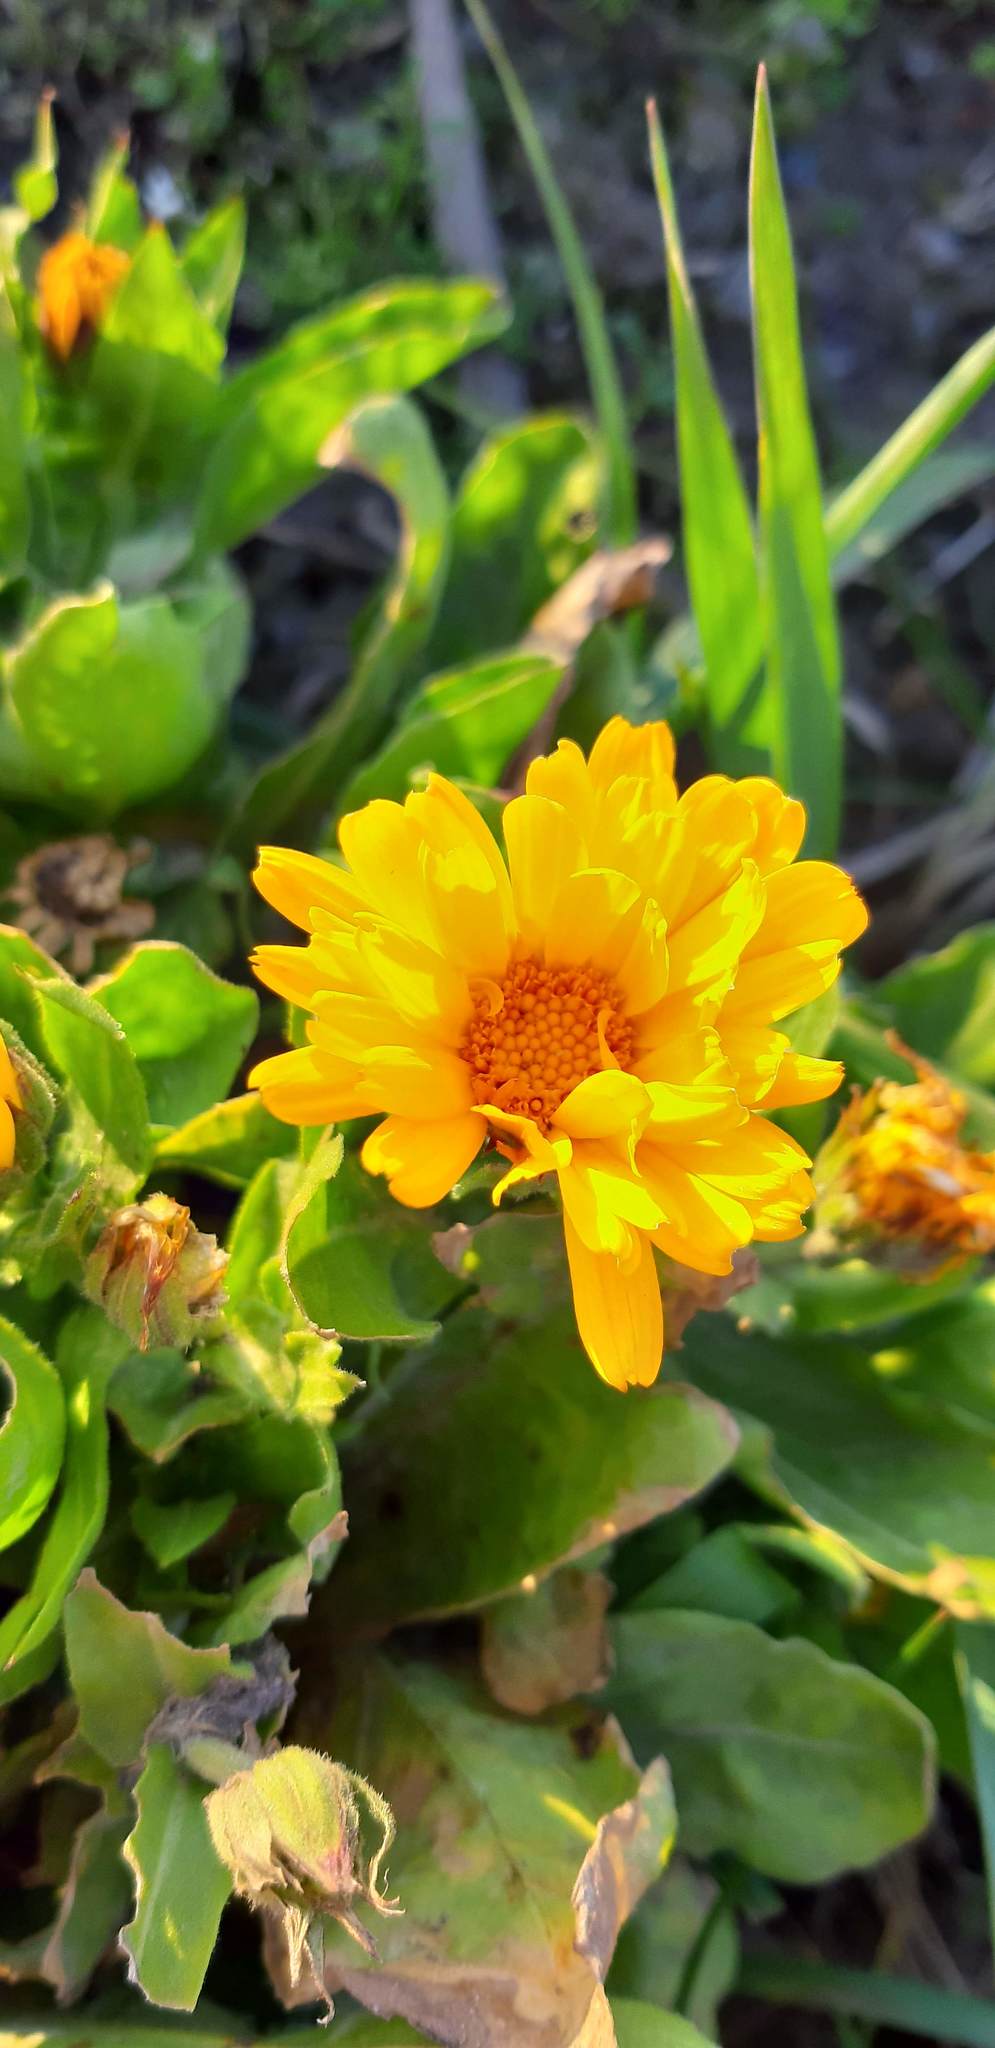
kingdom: Plantae
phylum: Tracheophyta
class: Magnoliopsida
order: Asterales
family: Asteraceae
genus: Calendula
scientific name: Calendula officinalis
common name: Pot marigold
